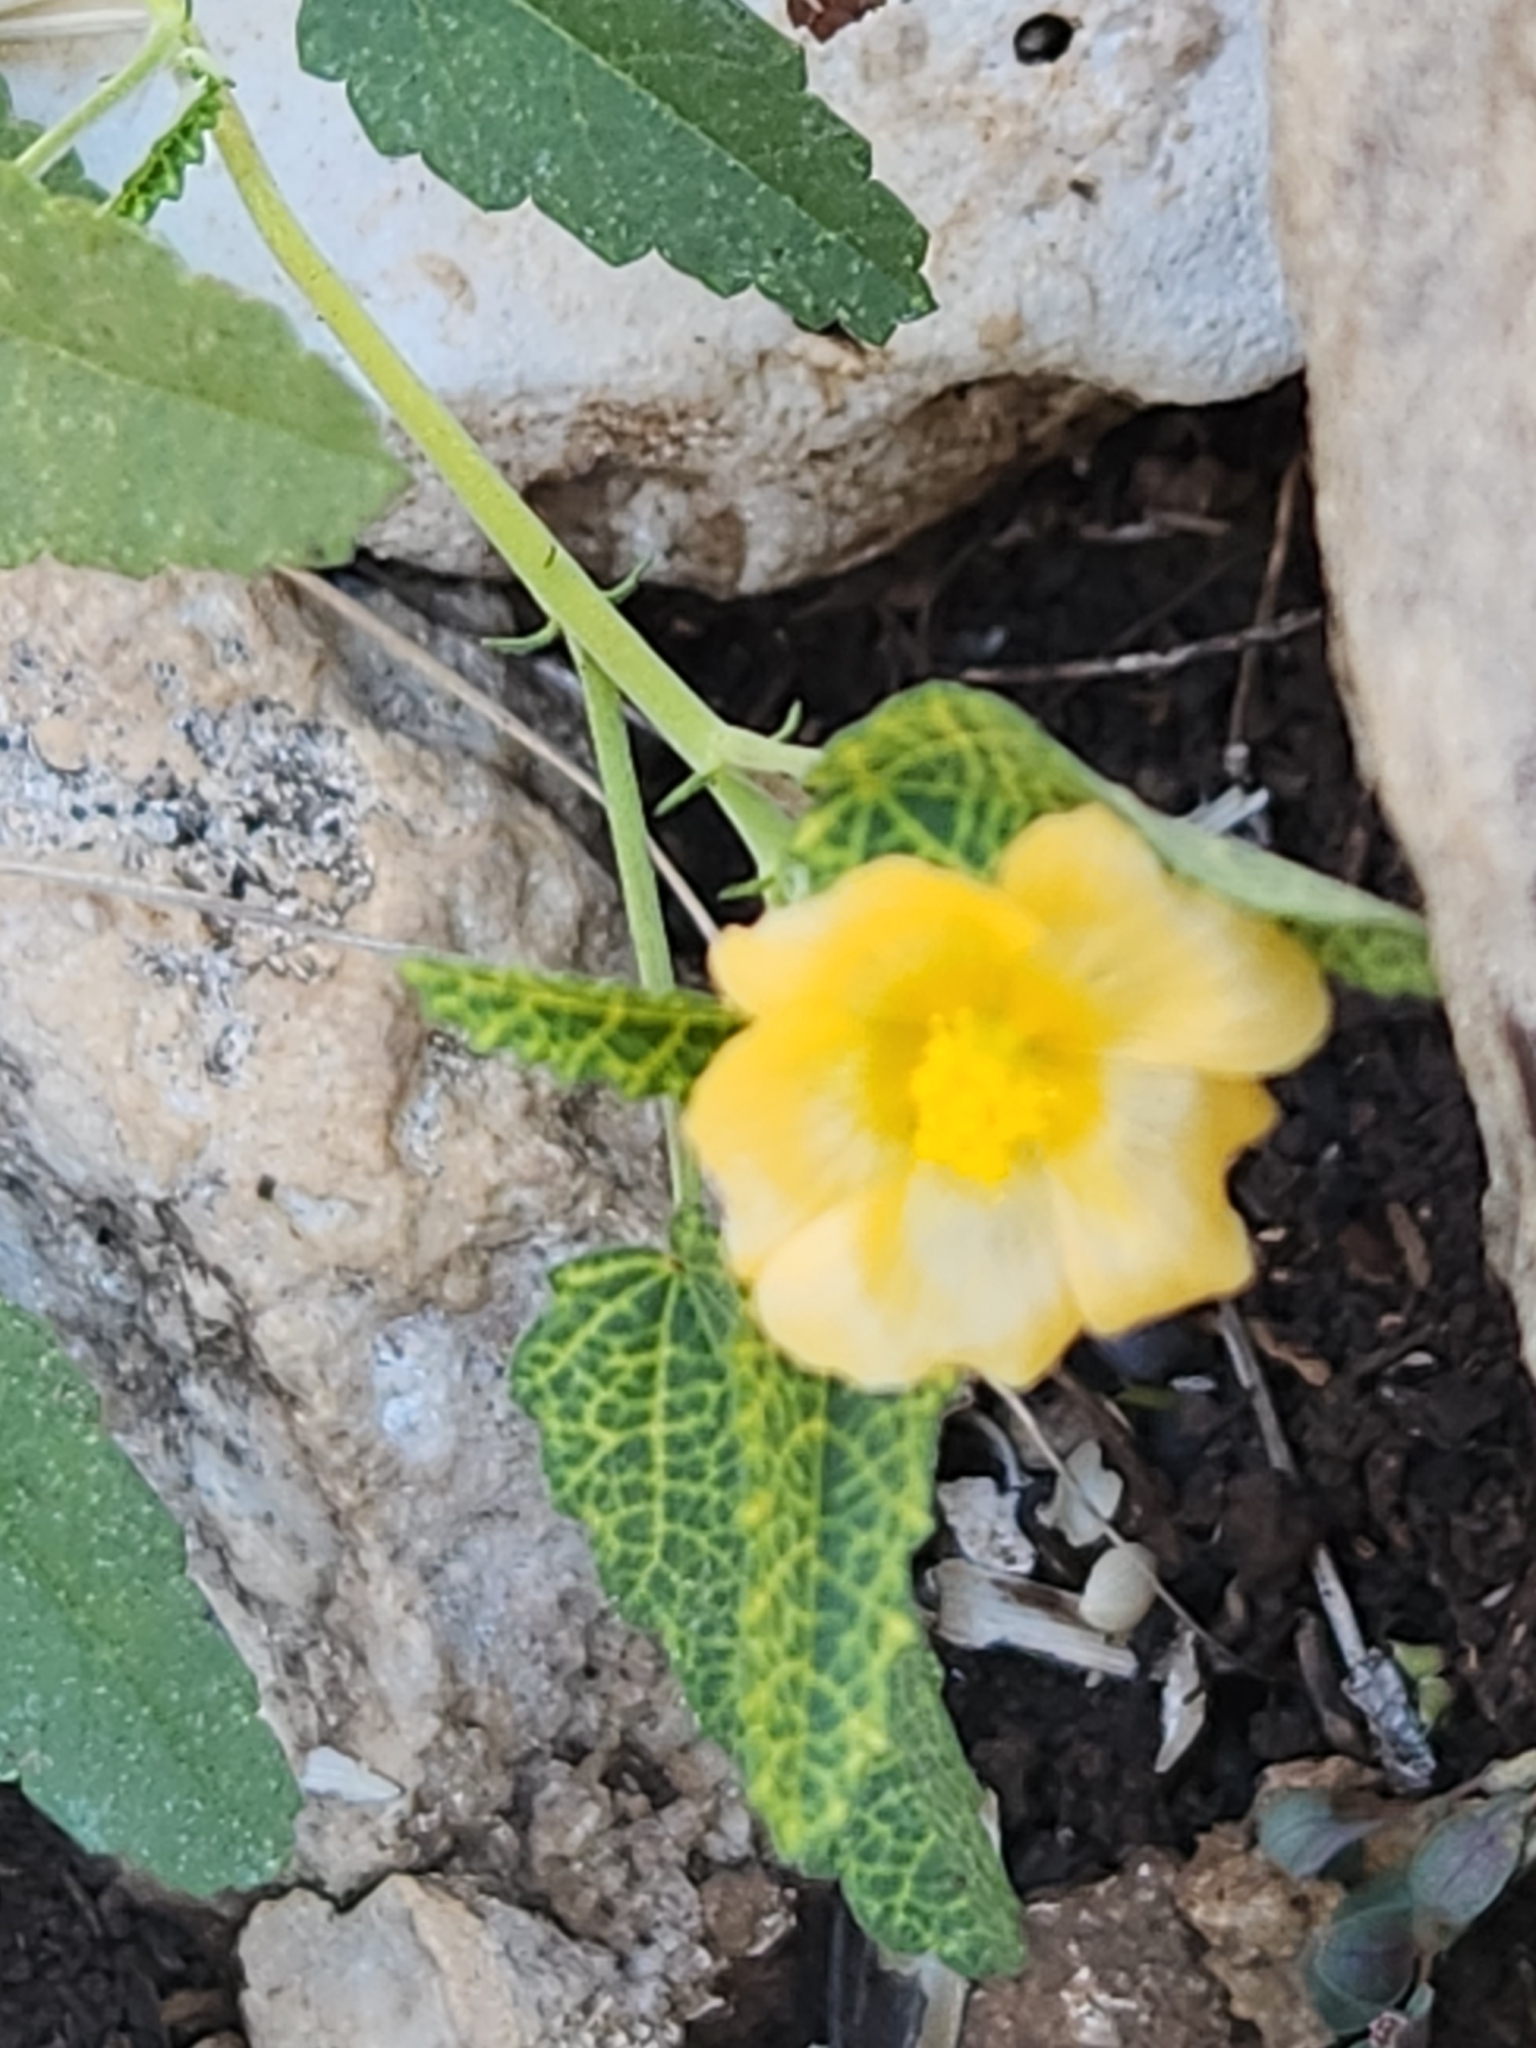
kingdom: Plantae
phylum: Tracheophyta
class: Magnoliopsida
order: Malvales
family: Malvaceae
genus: Sida
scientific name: Sida abutilifolia
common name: Spreading fanpetals
